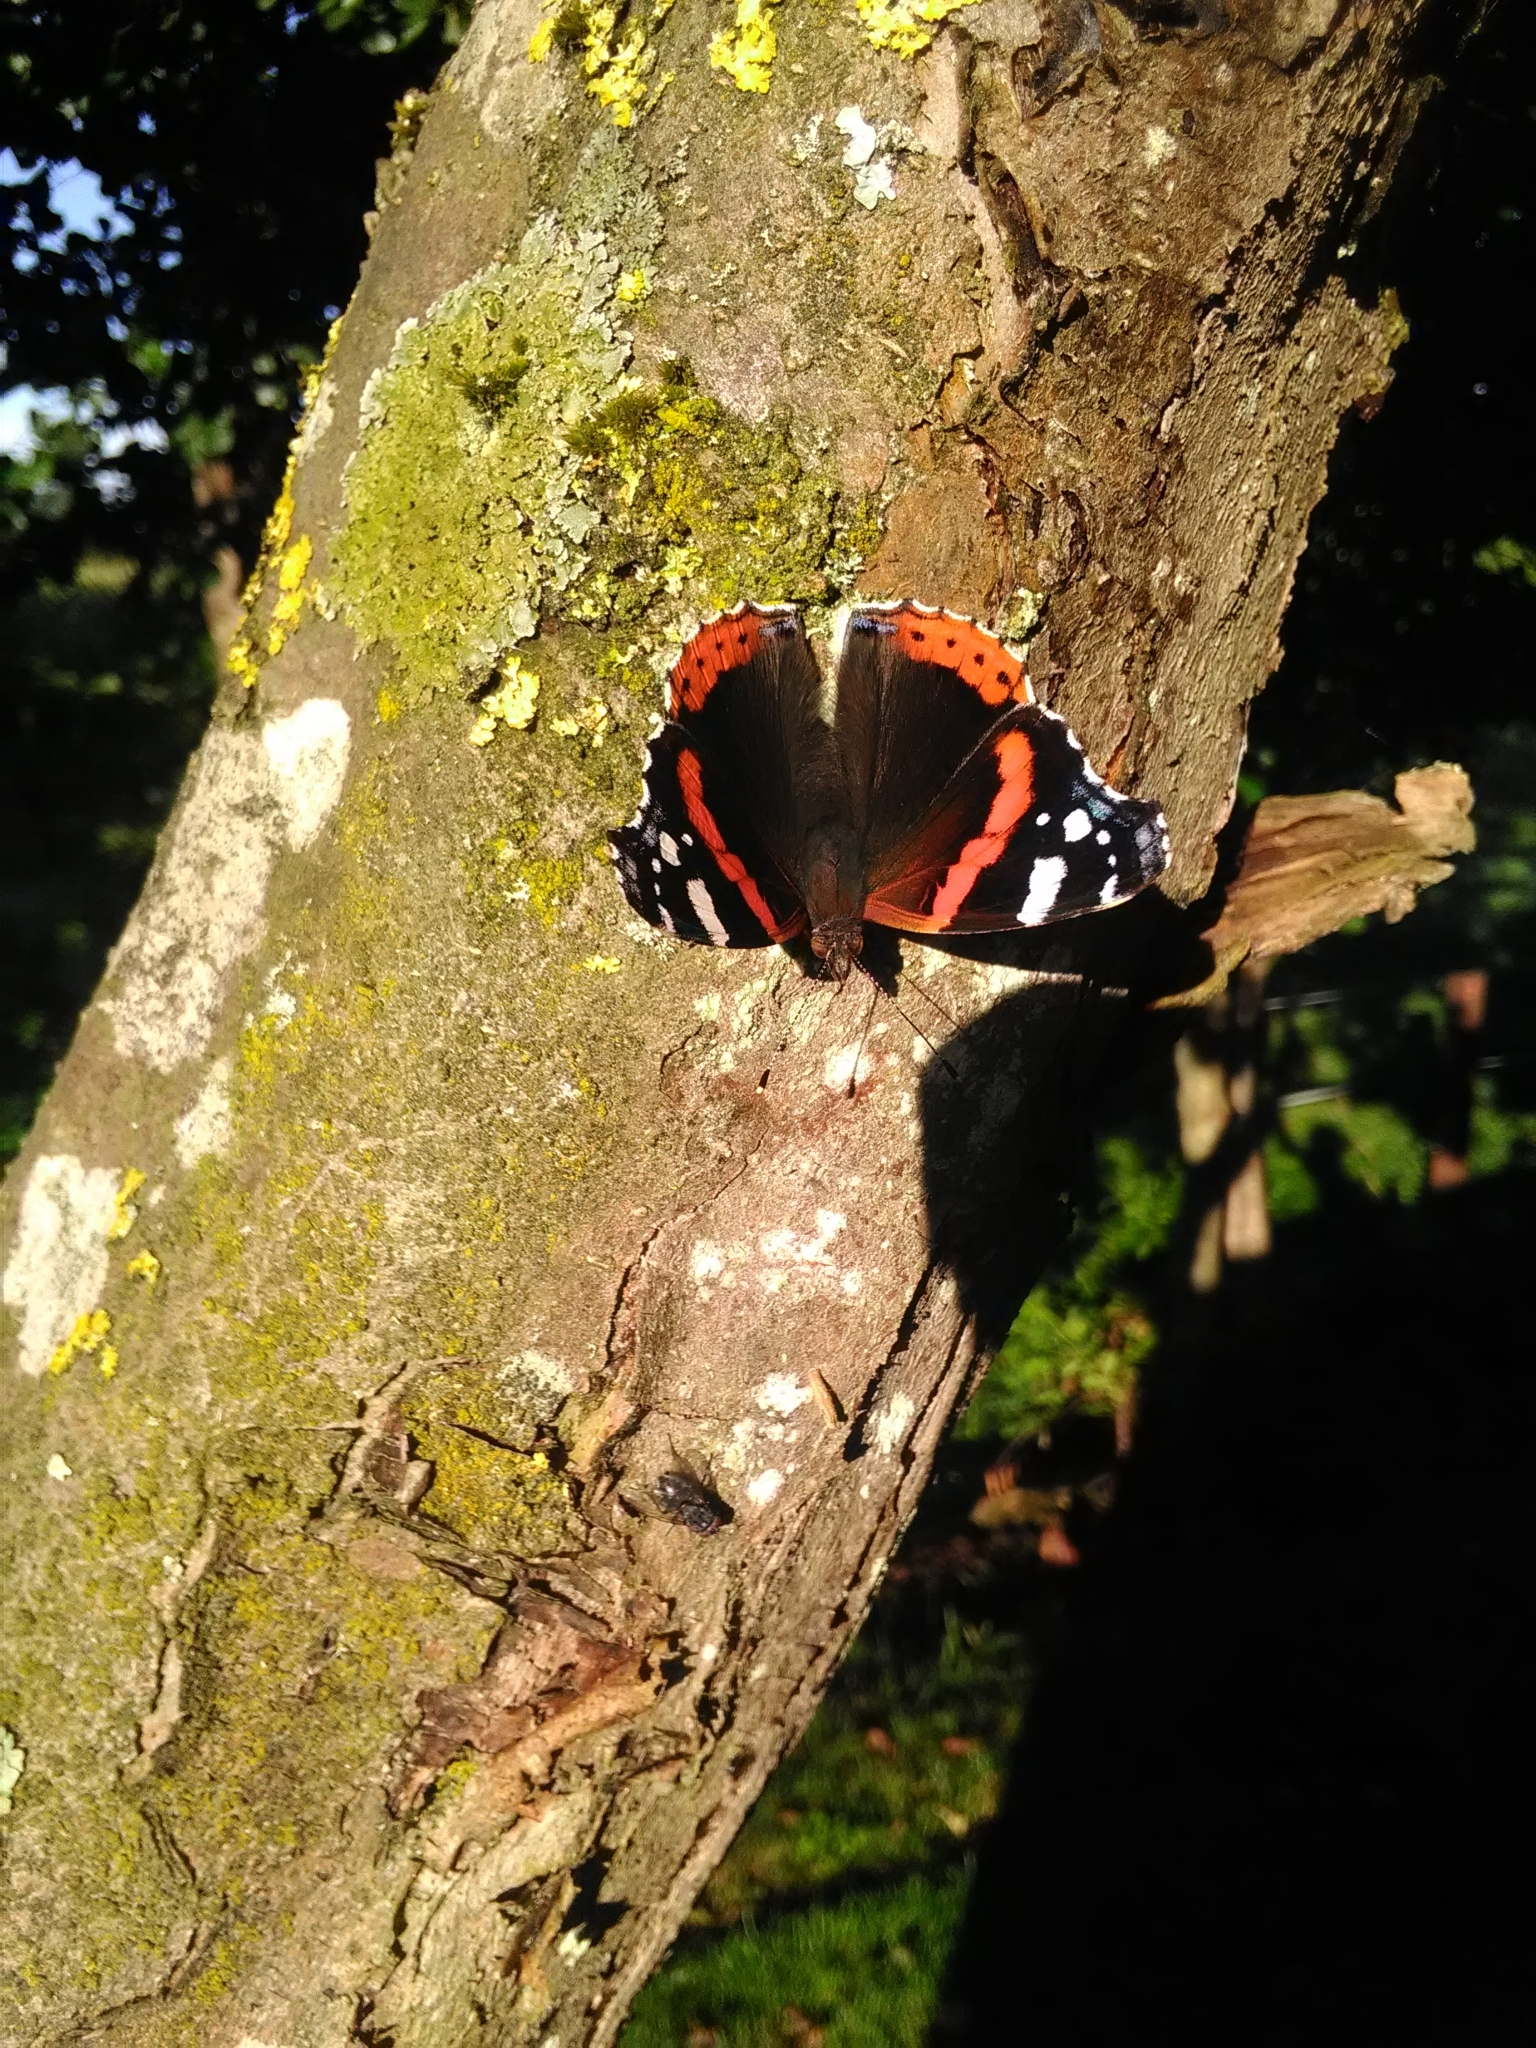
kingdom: Animalia
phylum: Arthropoda
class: Insecta
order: Lepidoptera
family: Nymphalidae
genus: Vanessa
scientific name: Vanessa atalanta
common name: Red admiral
